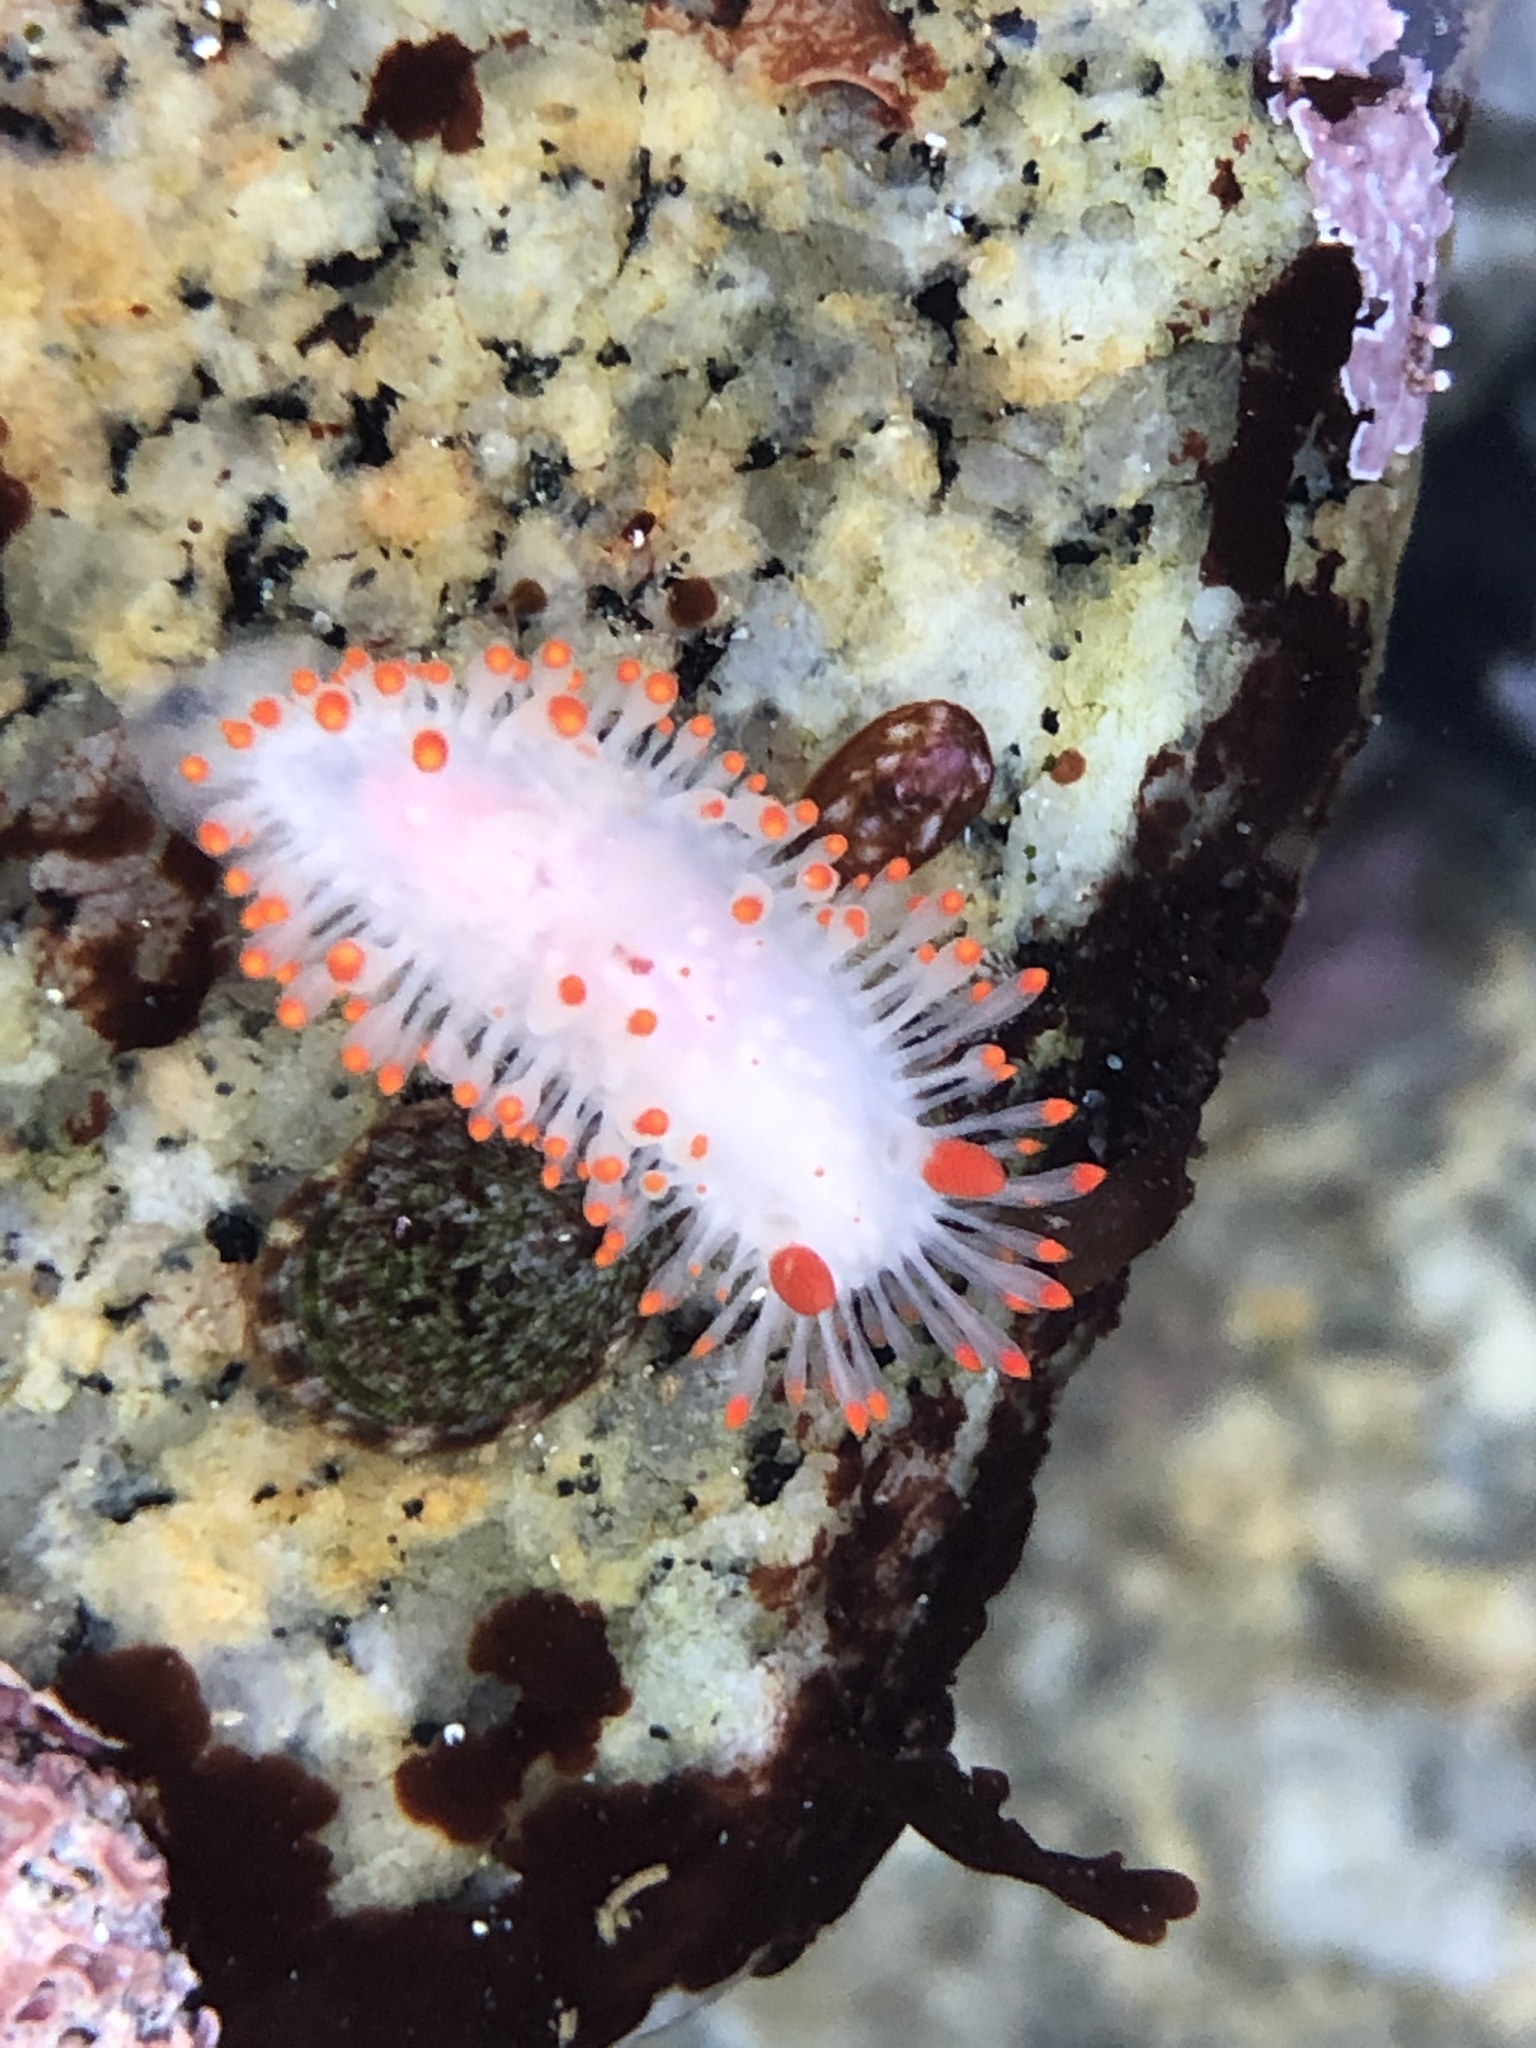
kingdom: Animalia
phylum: Mollusca
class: Gastropoda
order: Nudibranchia
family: Polyceridae
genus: Limacia
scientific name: Limacia cockerelli
